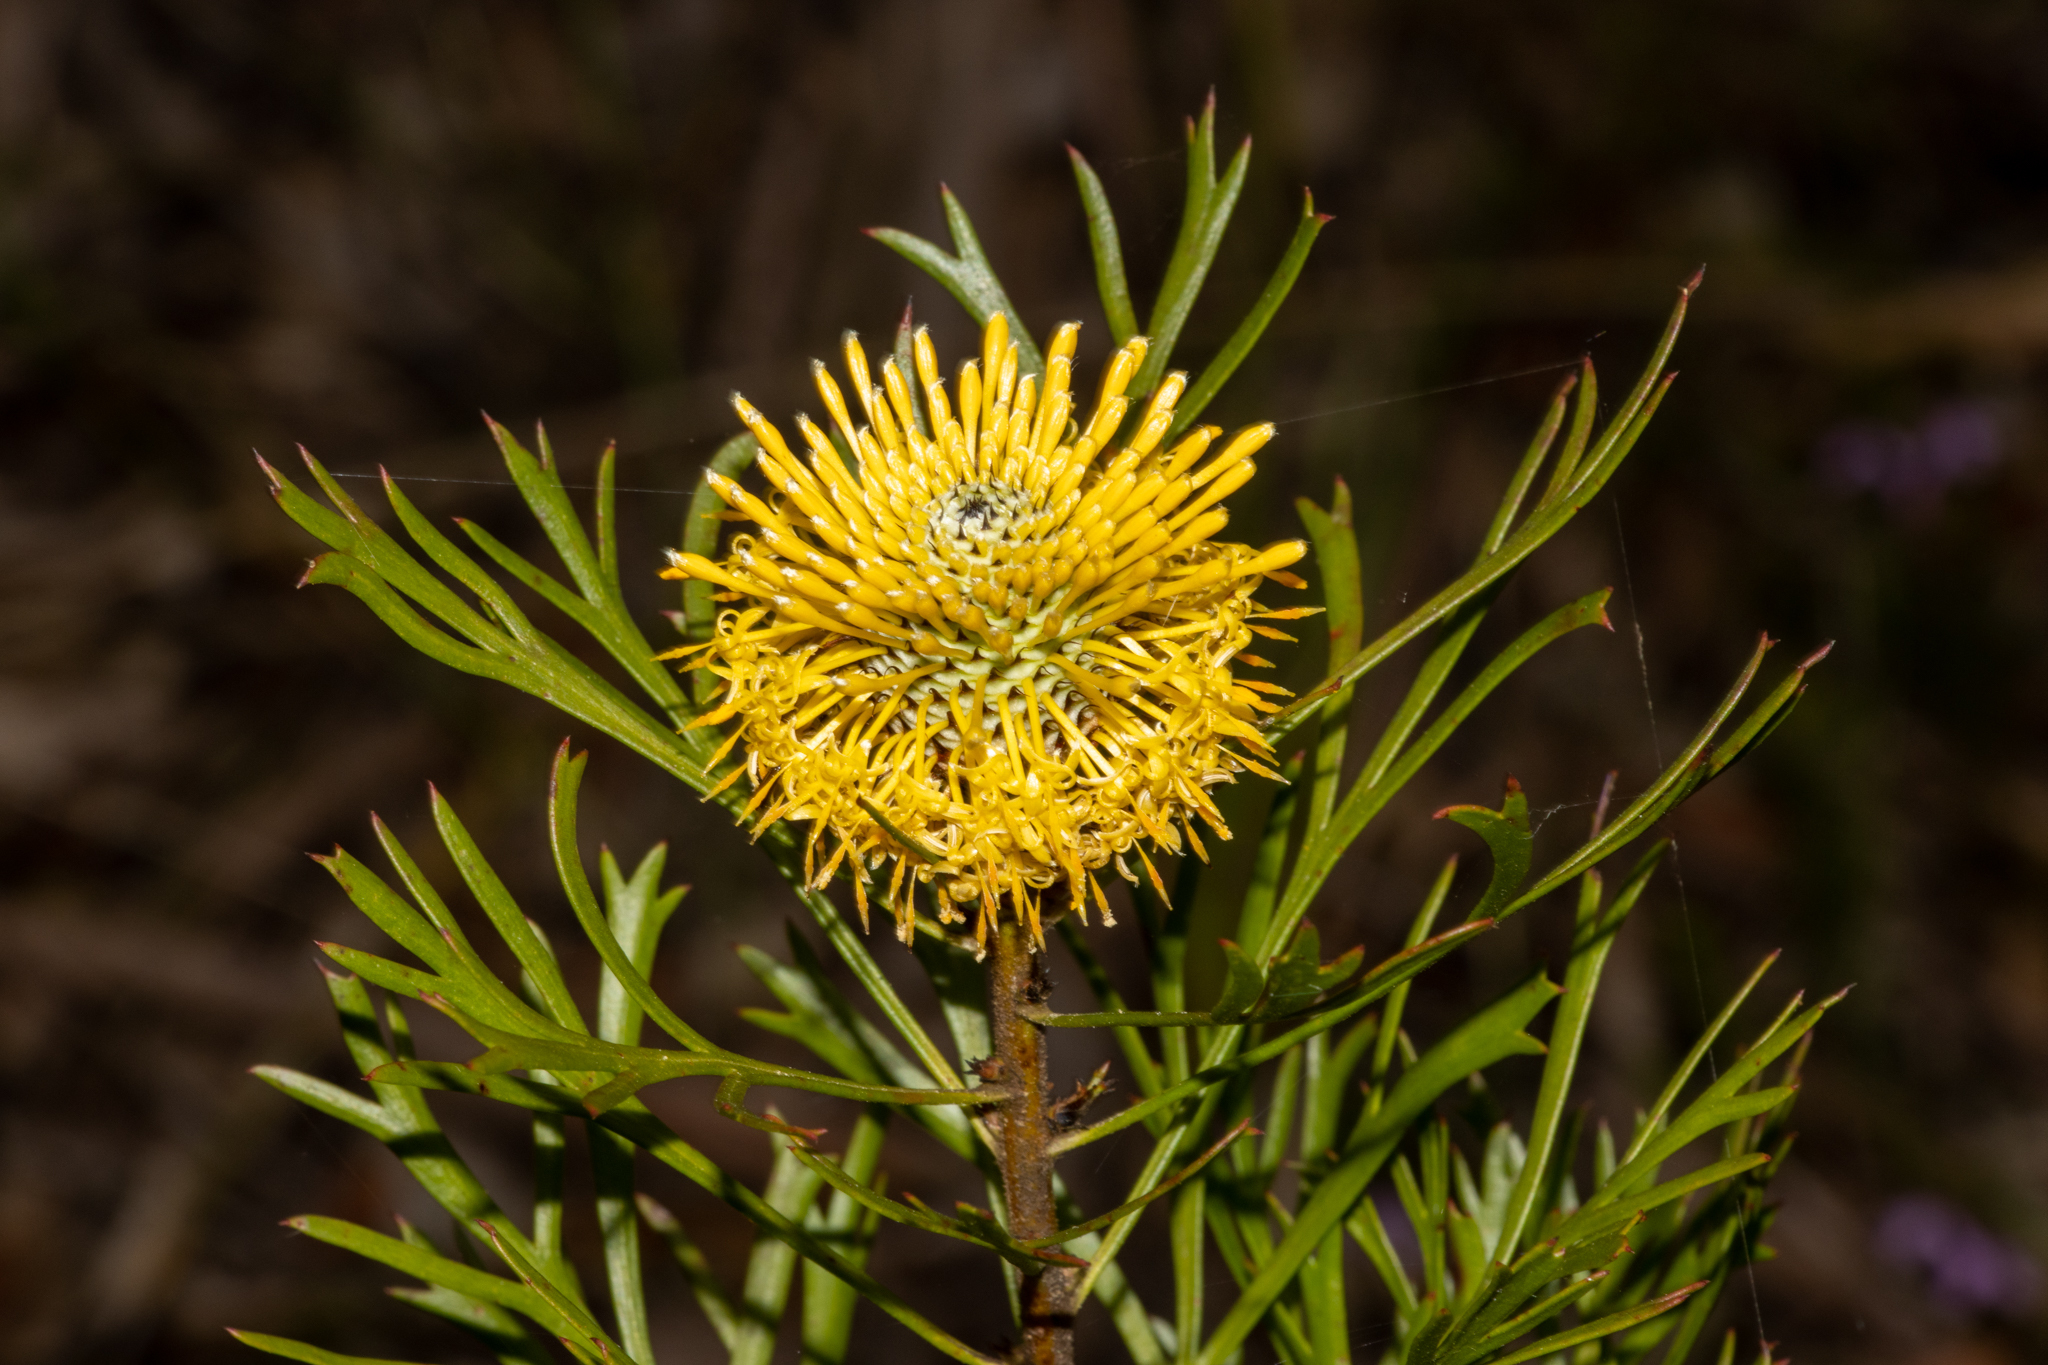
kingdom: Plantae
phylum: Tracheophyta
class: Magnoliopsida
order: Proteales
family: Proteaceae
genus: Isopogon
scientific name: Isopogon anemonifolius
